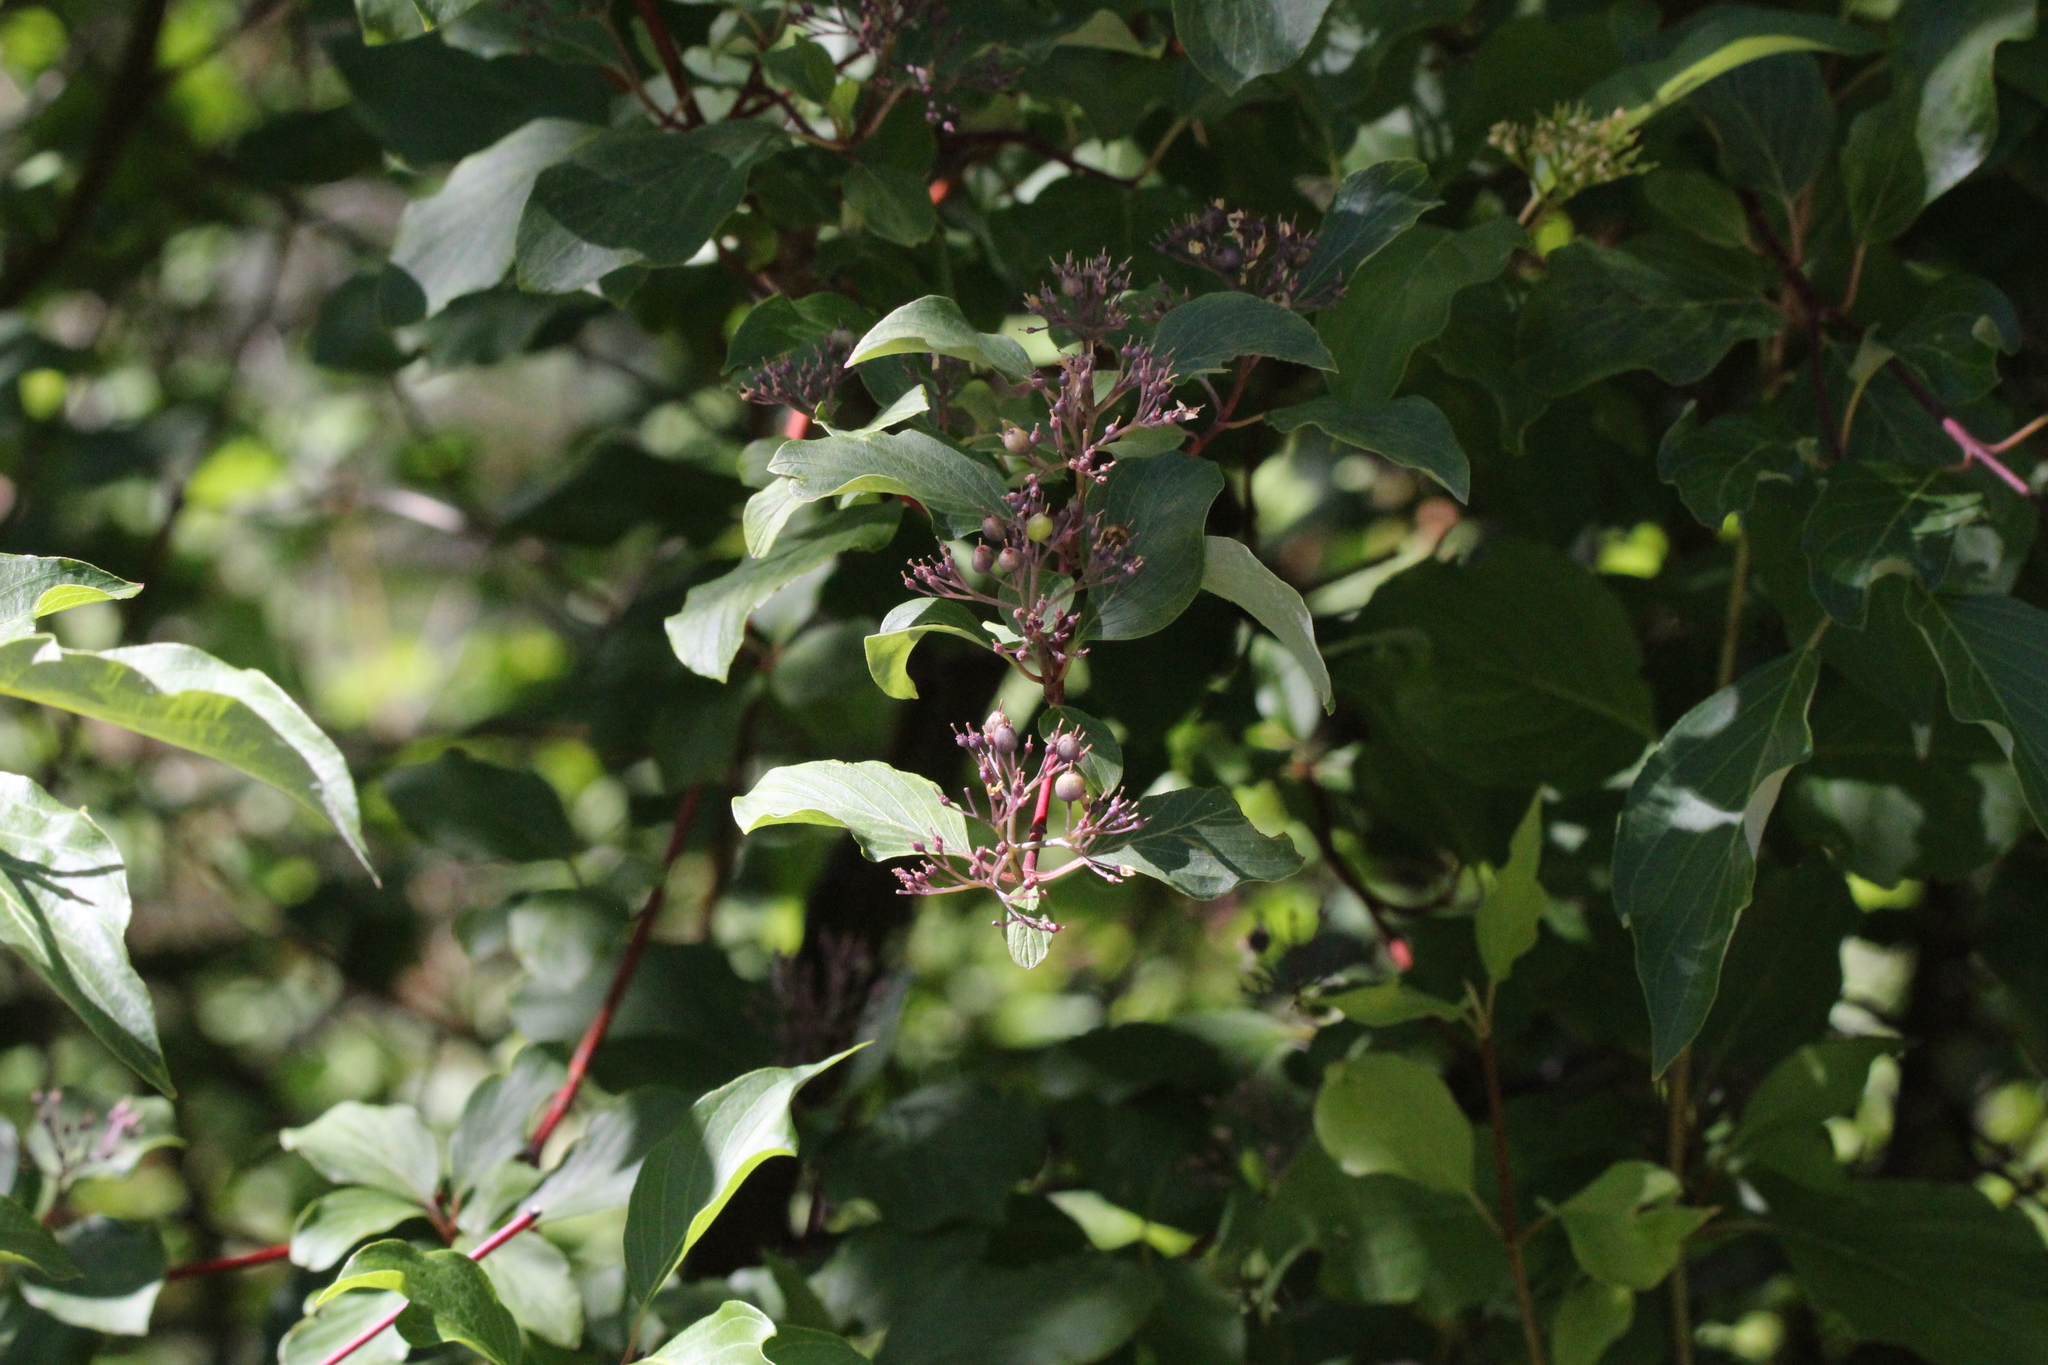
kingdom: Plantae
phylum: Tracheophyta
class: Magnoliopsida
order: Lamiales
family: Oleaceae
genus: Syringa
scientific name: Syringa vulgaris
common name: Common lilac
